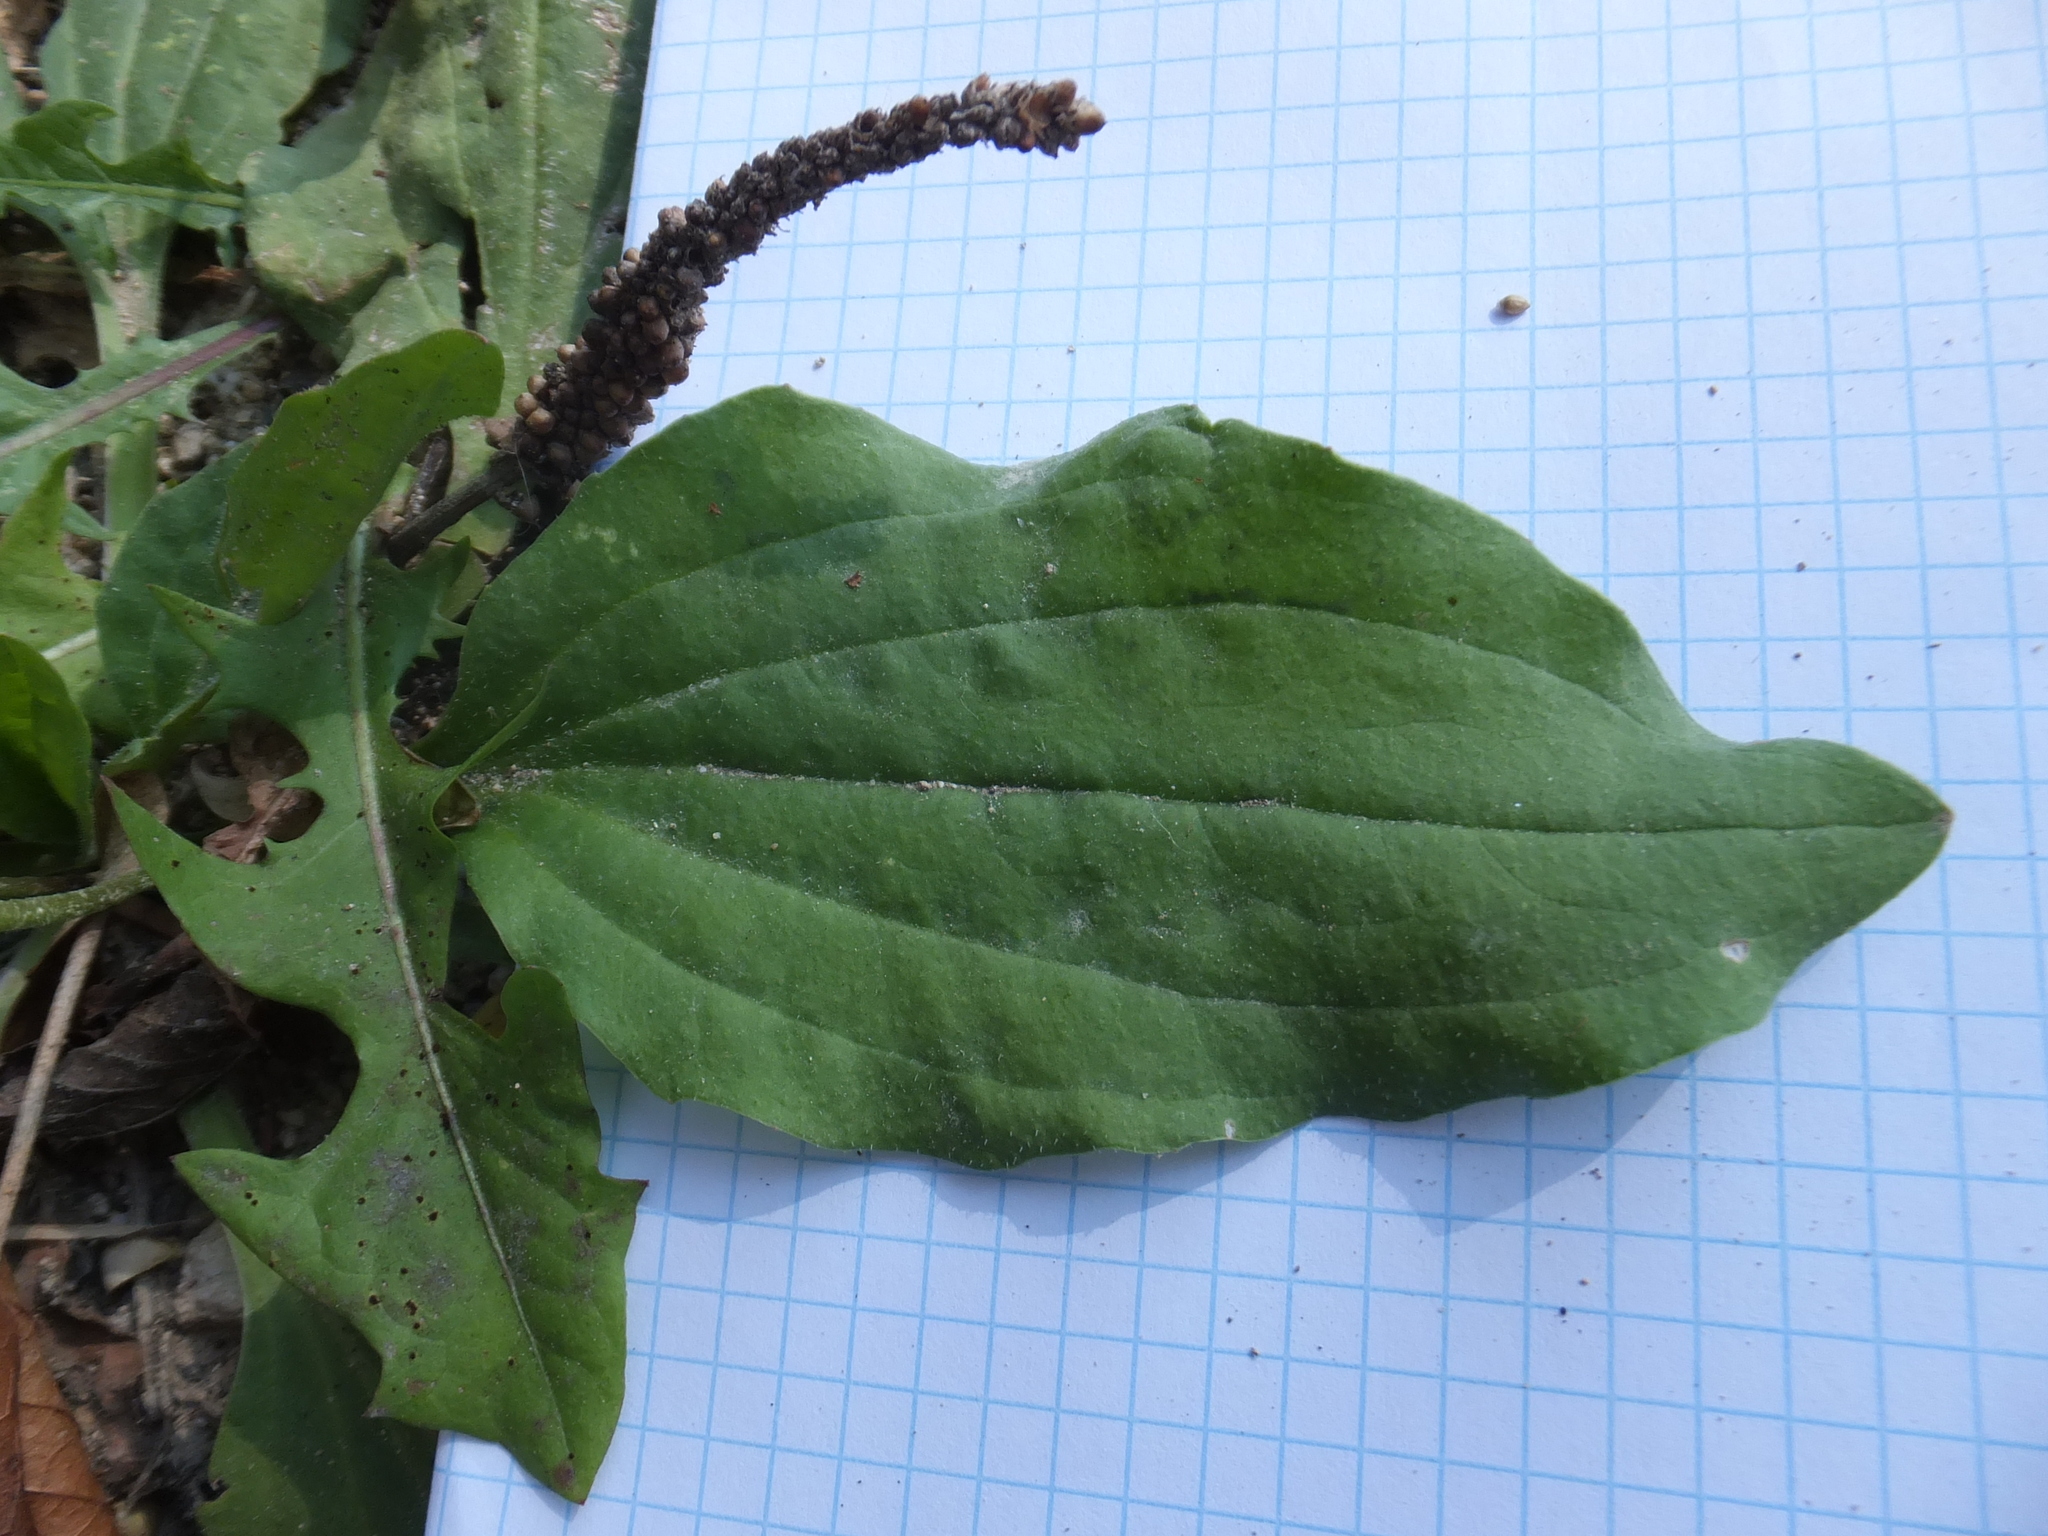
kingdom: Plantae
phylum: Tracheophyta
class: Magnoliopsida
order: Lamiales
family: Plantaginaceae
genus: Plantago
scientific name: Plantago major
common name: Common plantain
